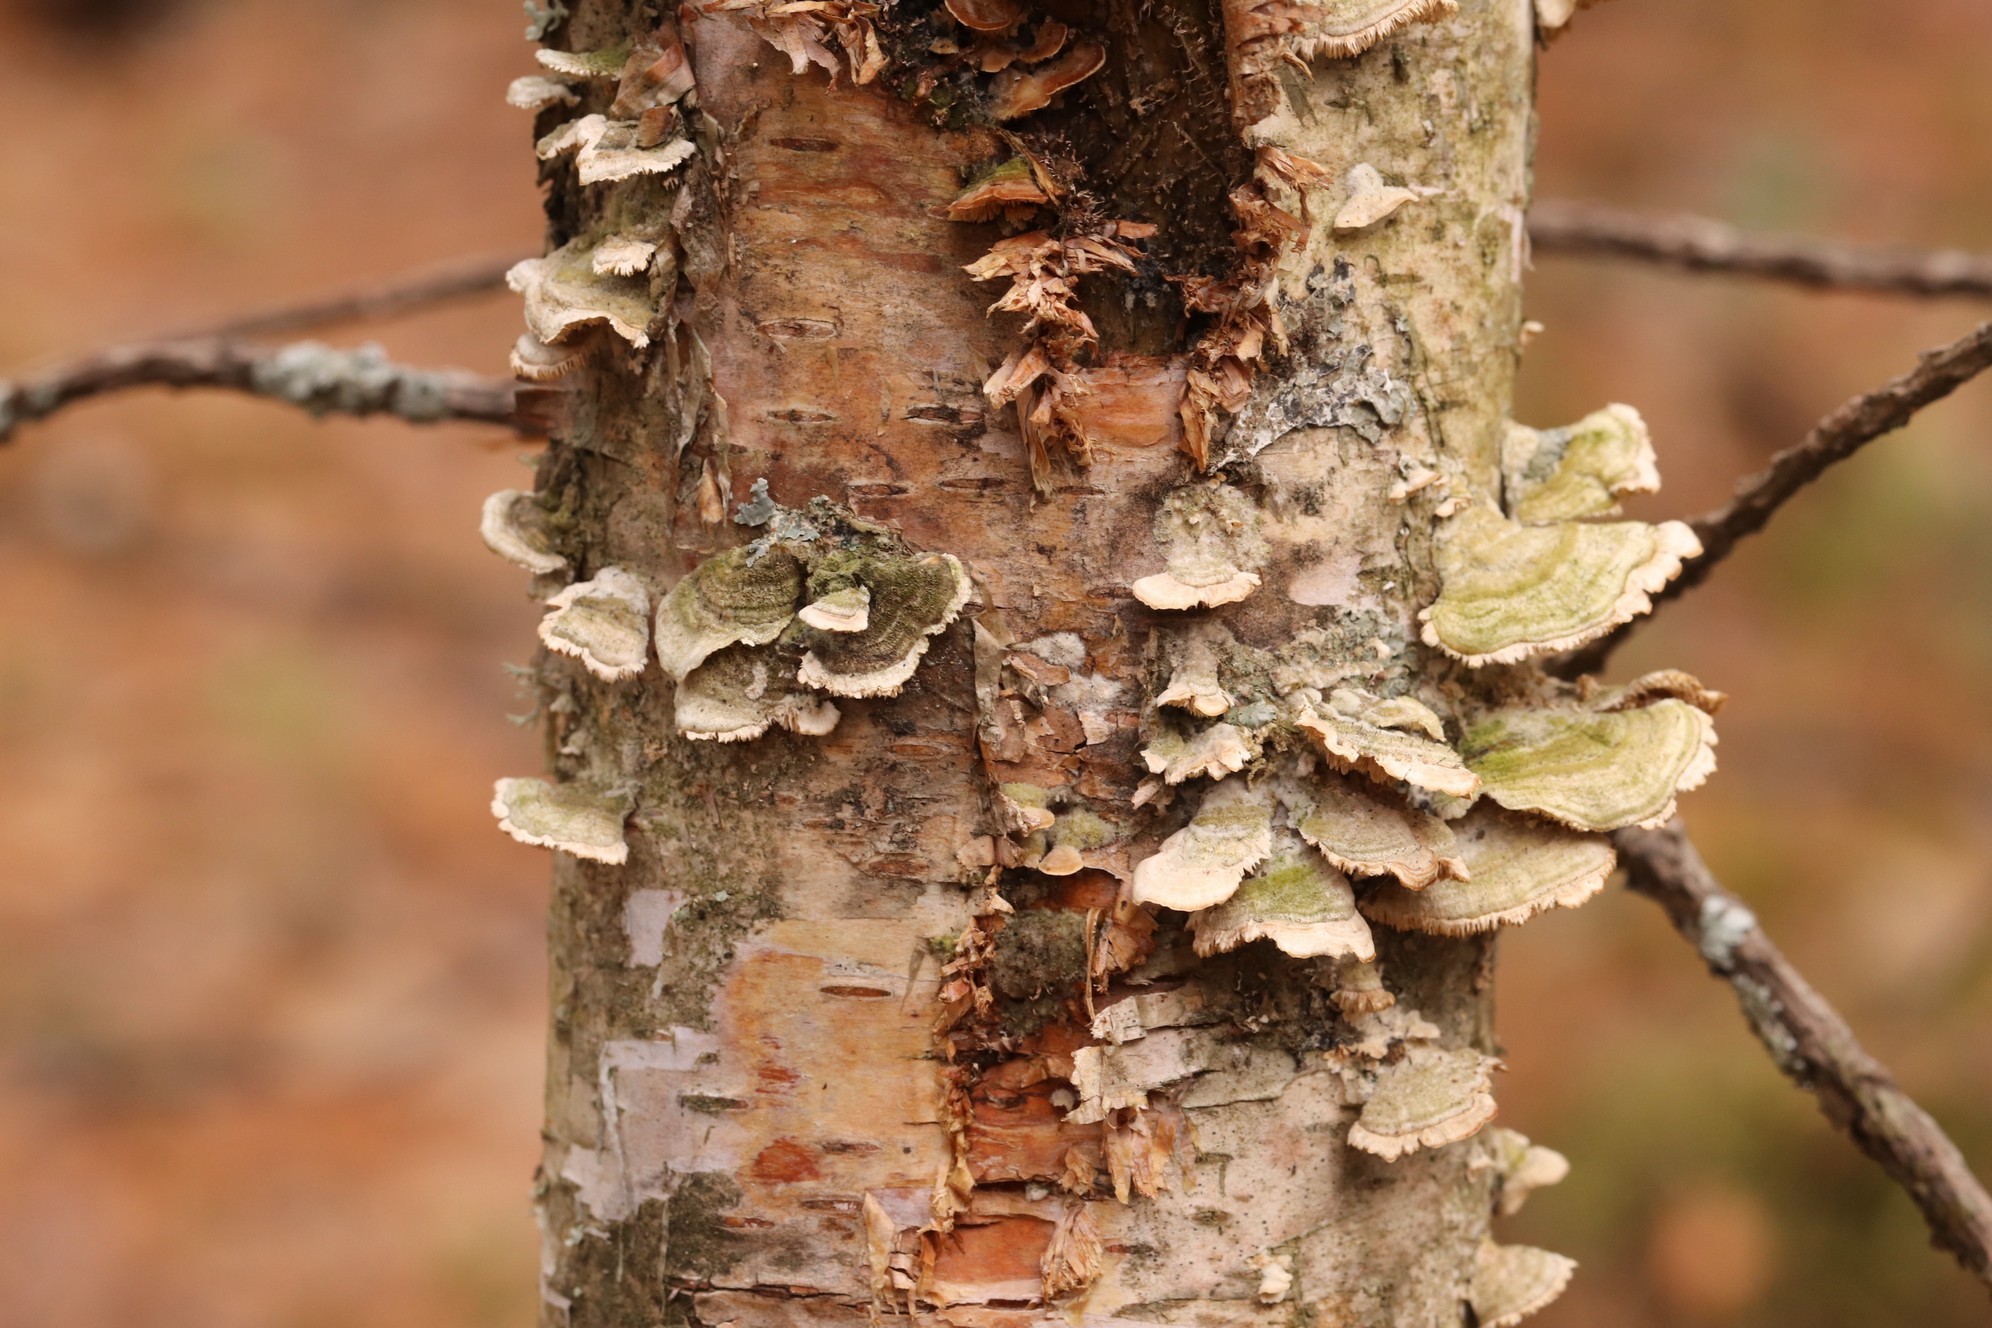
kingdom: Fungi
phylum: Basidiomycota
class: Agaricomycetes
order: Hymenochaetales
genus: Trichaptum
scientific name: Trichaptum biforme
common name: Violet-toothed polypore
